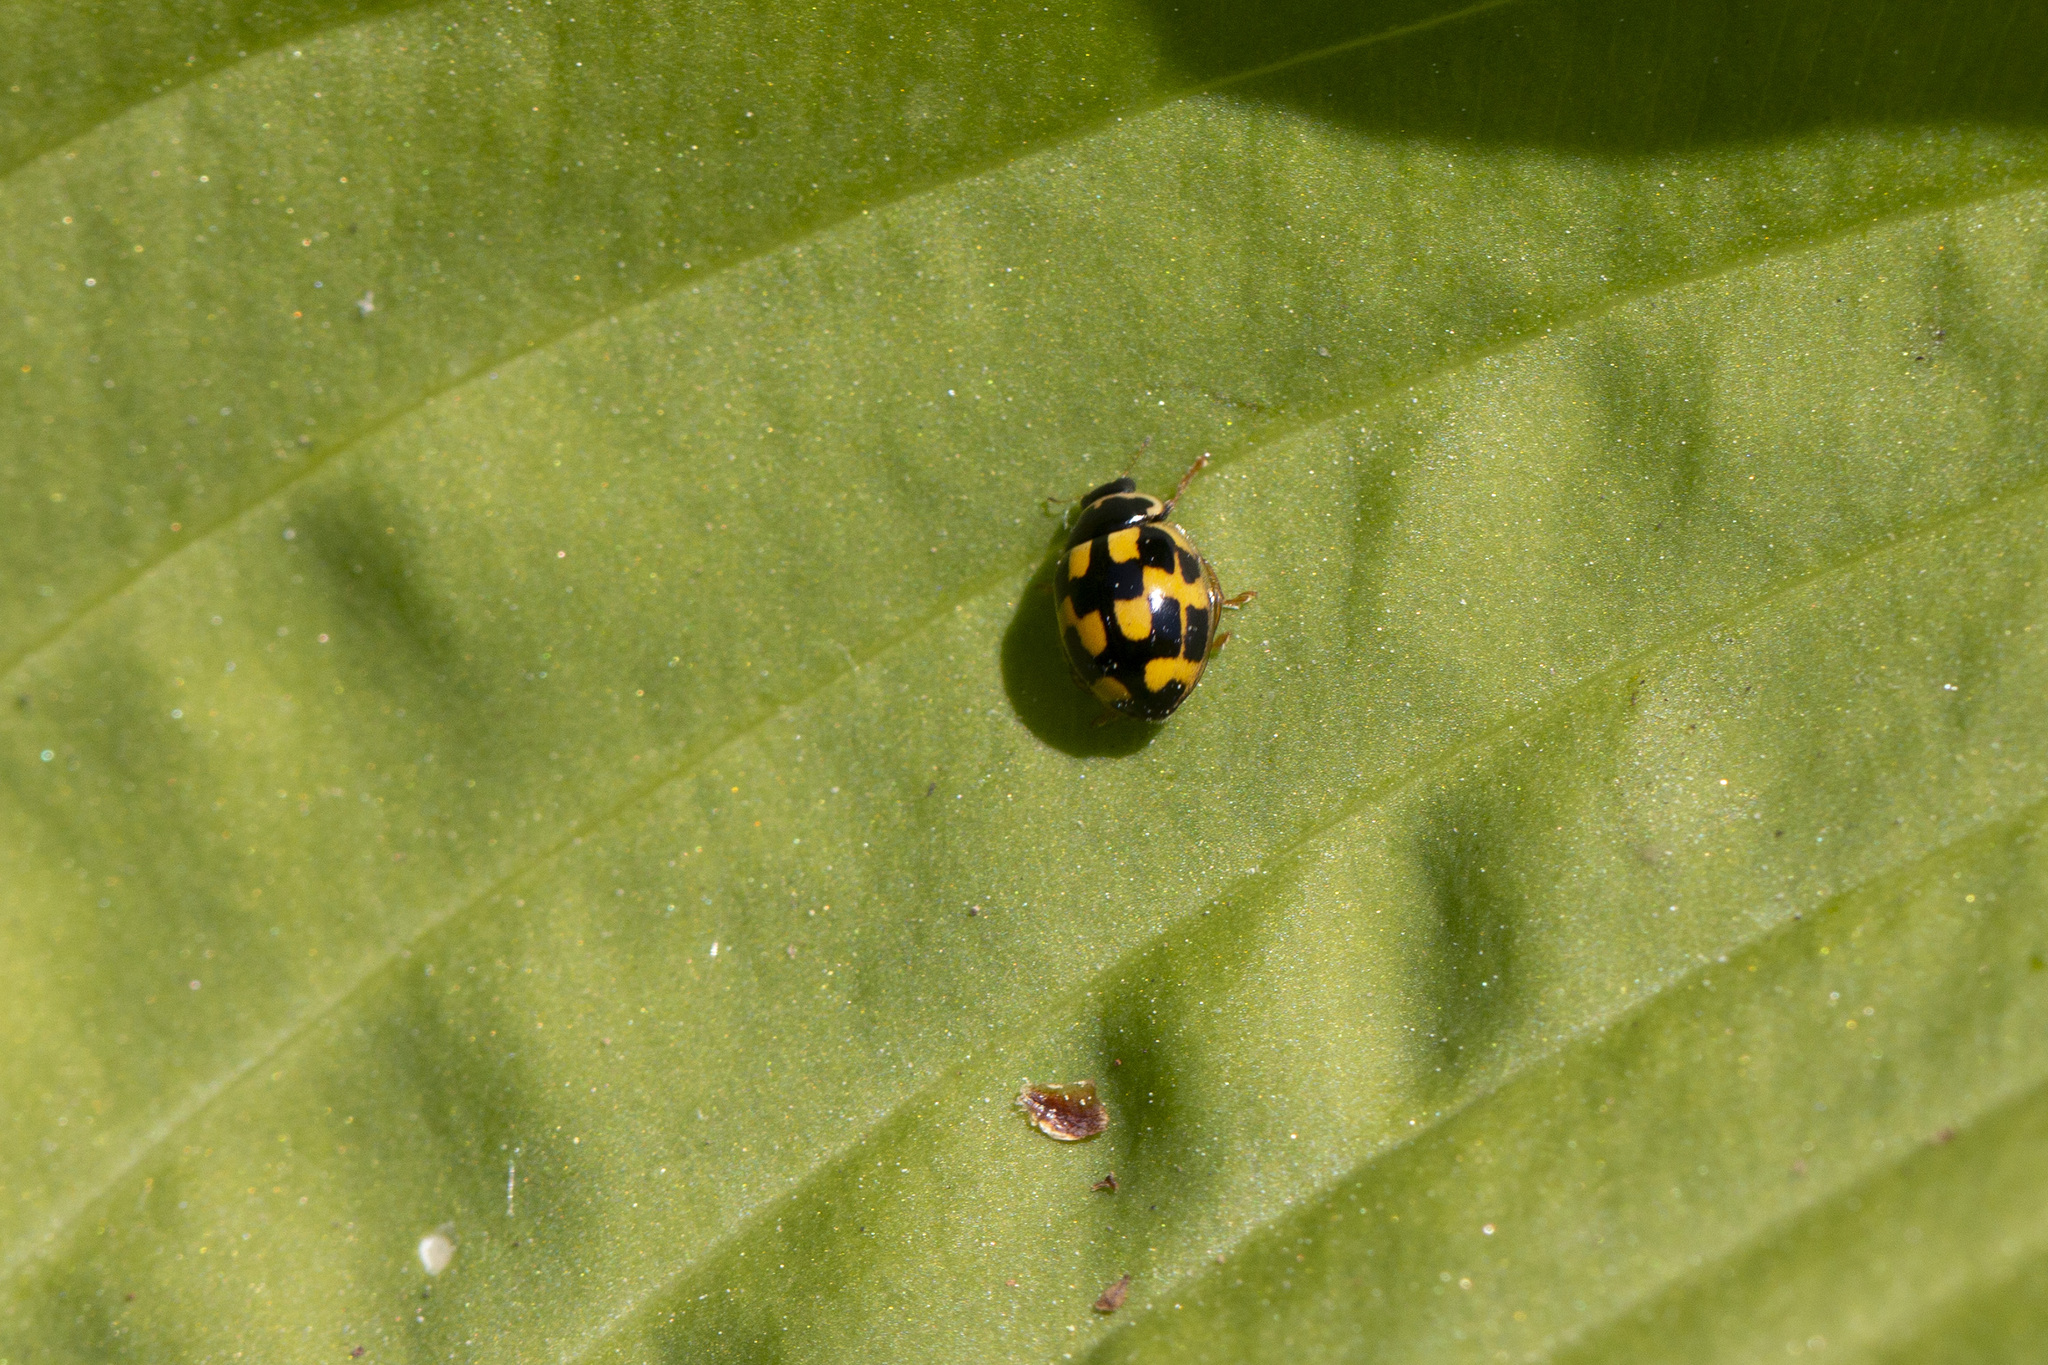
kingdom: Animalia
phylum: Arthropoda
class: Insecta
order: Coleoptera
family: Coccinellidae
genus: Propylaea
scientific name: Propylaea quatuordecimpunctata
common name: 14-spotted ladybird beetle
